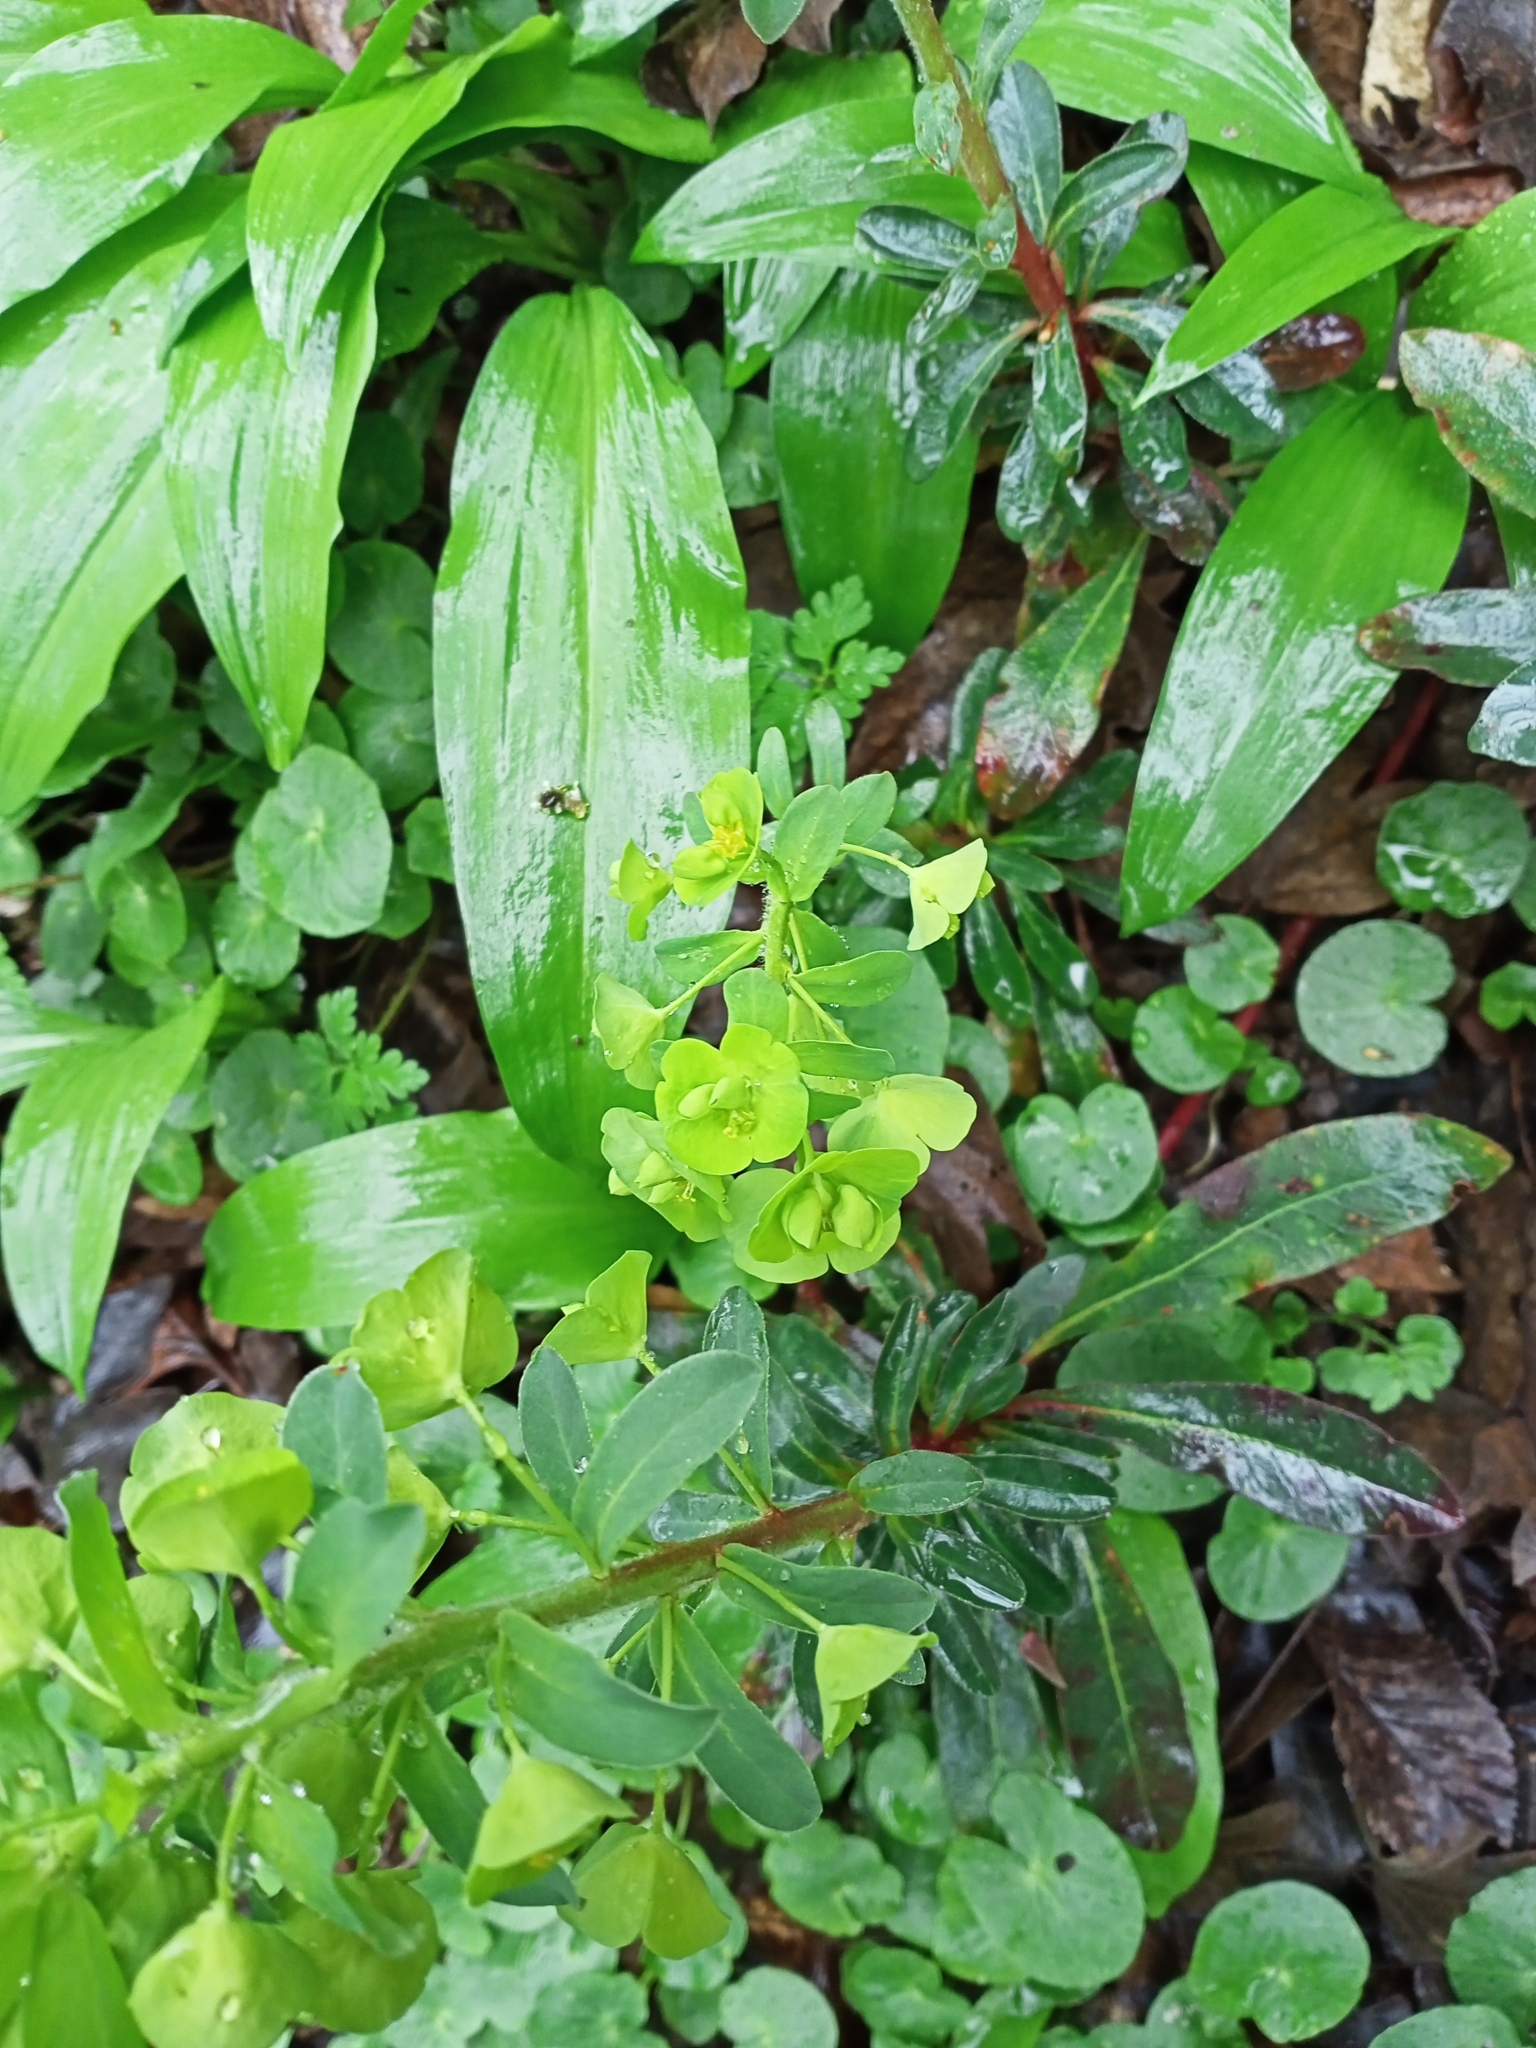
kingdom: Plantae
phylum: Tracheophyta
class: Magnoliopsida
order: Malpighiales
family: Euphorbiaceae
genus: Euphorbia
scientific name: Euphorbia amygdaloides
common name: Wood spurge
